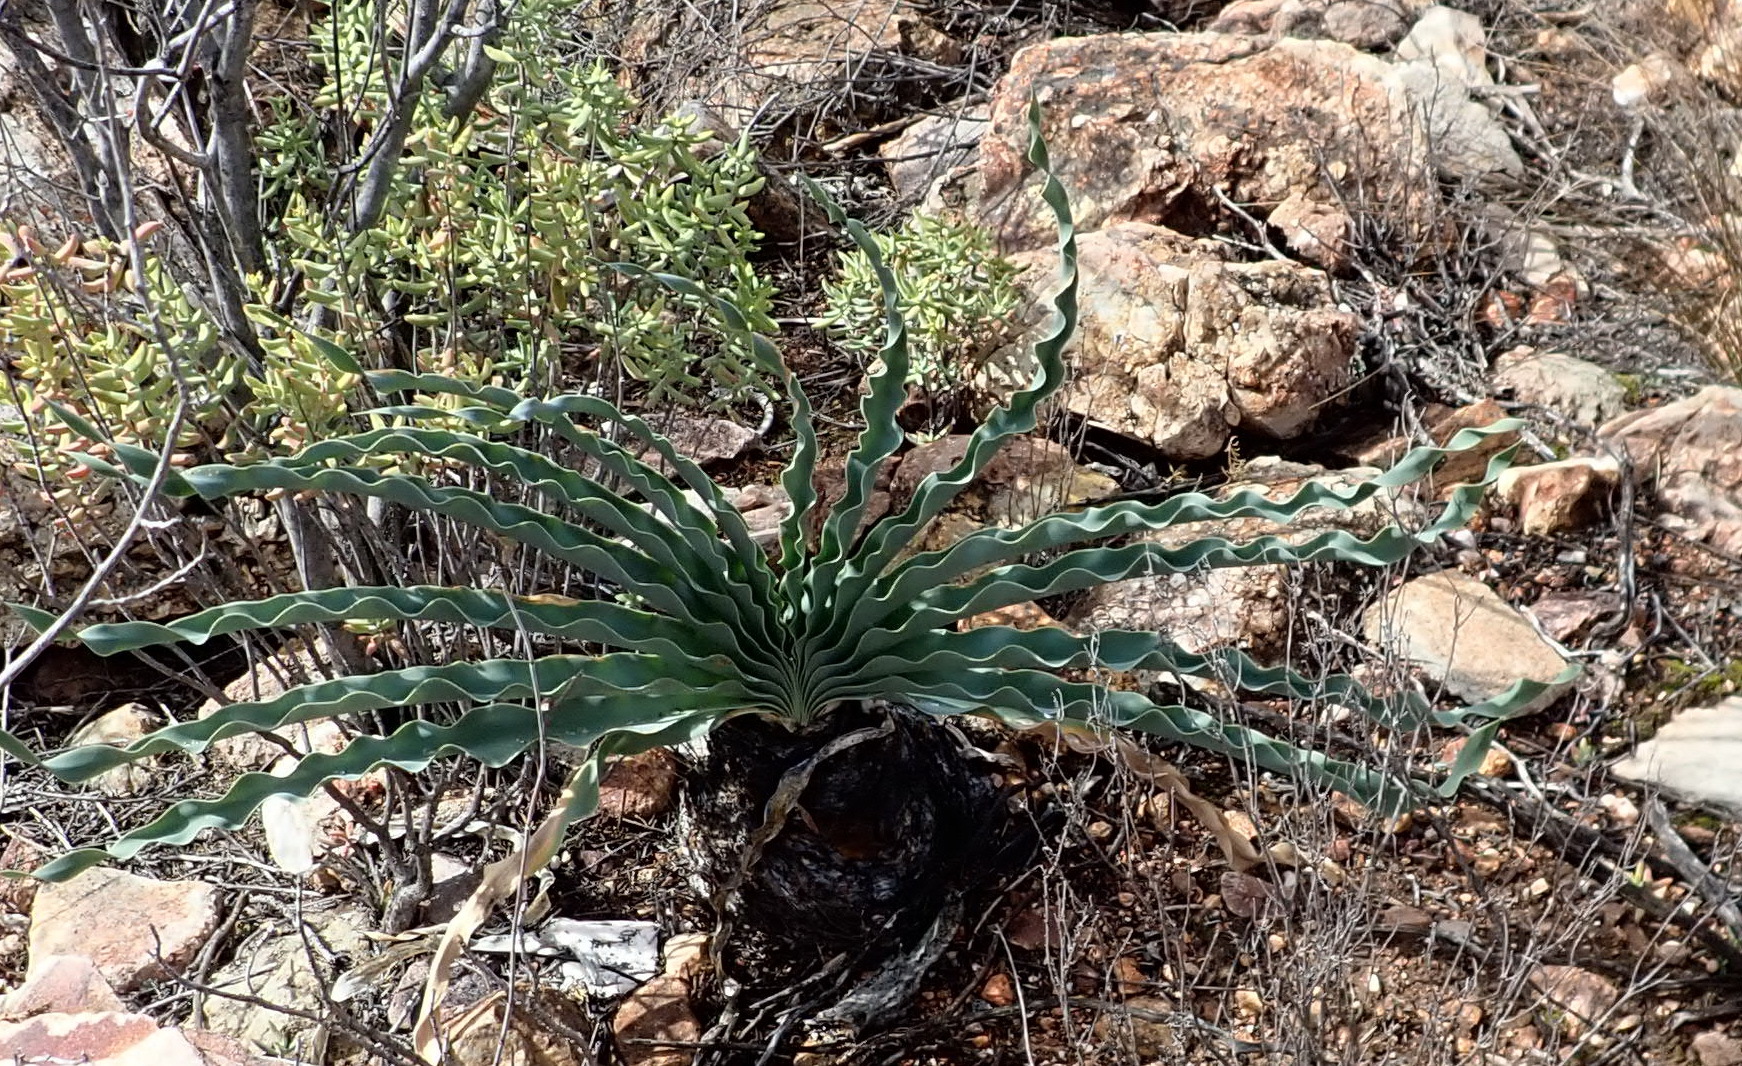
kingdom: Plantae
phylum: Tracheophyta
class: Liliopsida
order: Asparagales
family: Amaryllidaceae
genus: Boophone
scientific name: Boophone disticha
